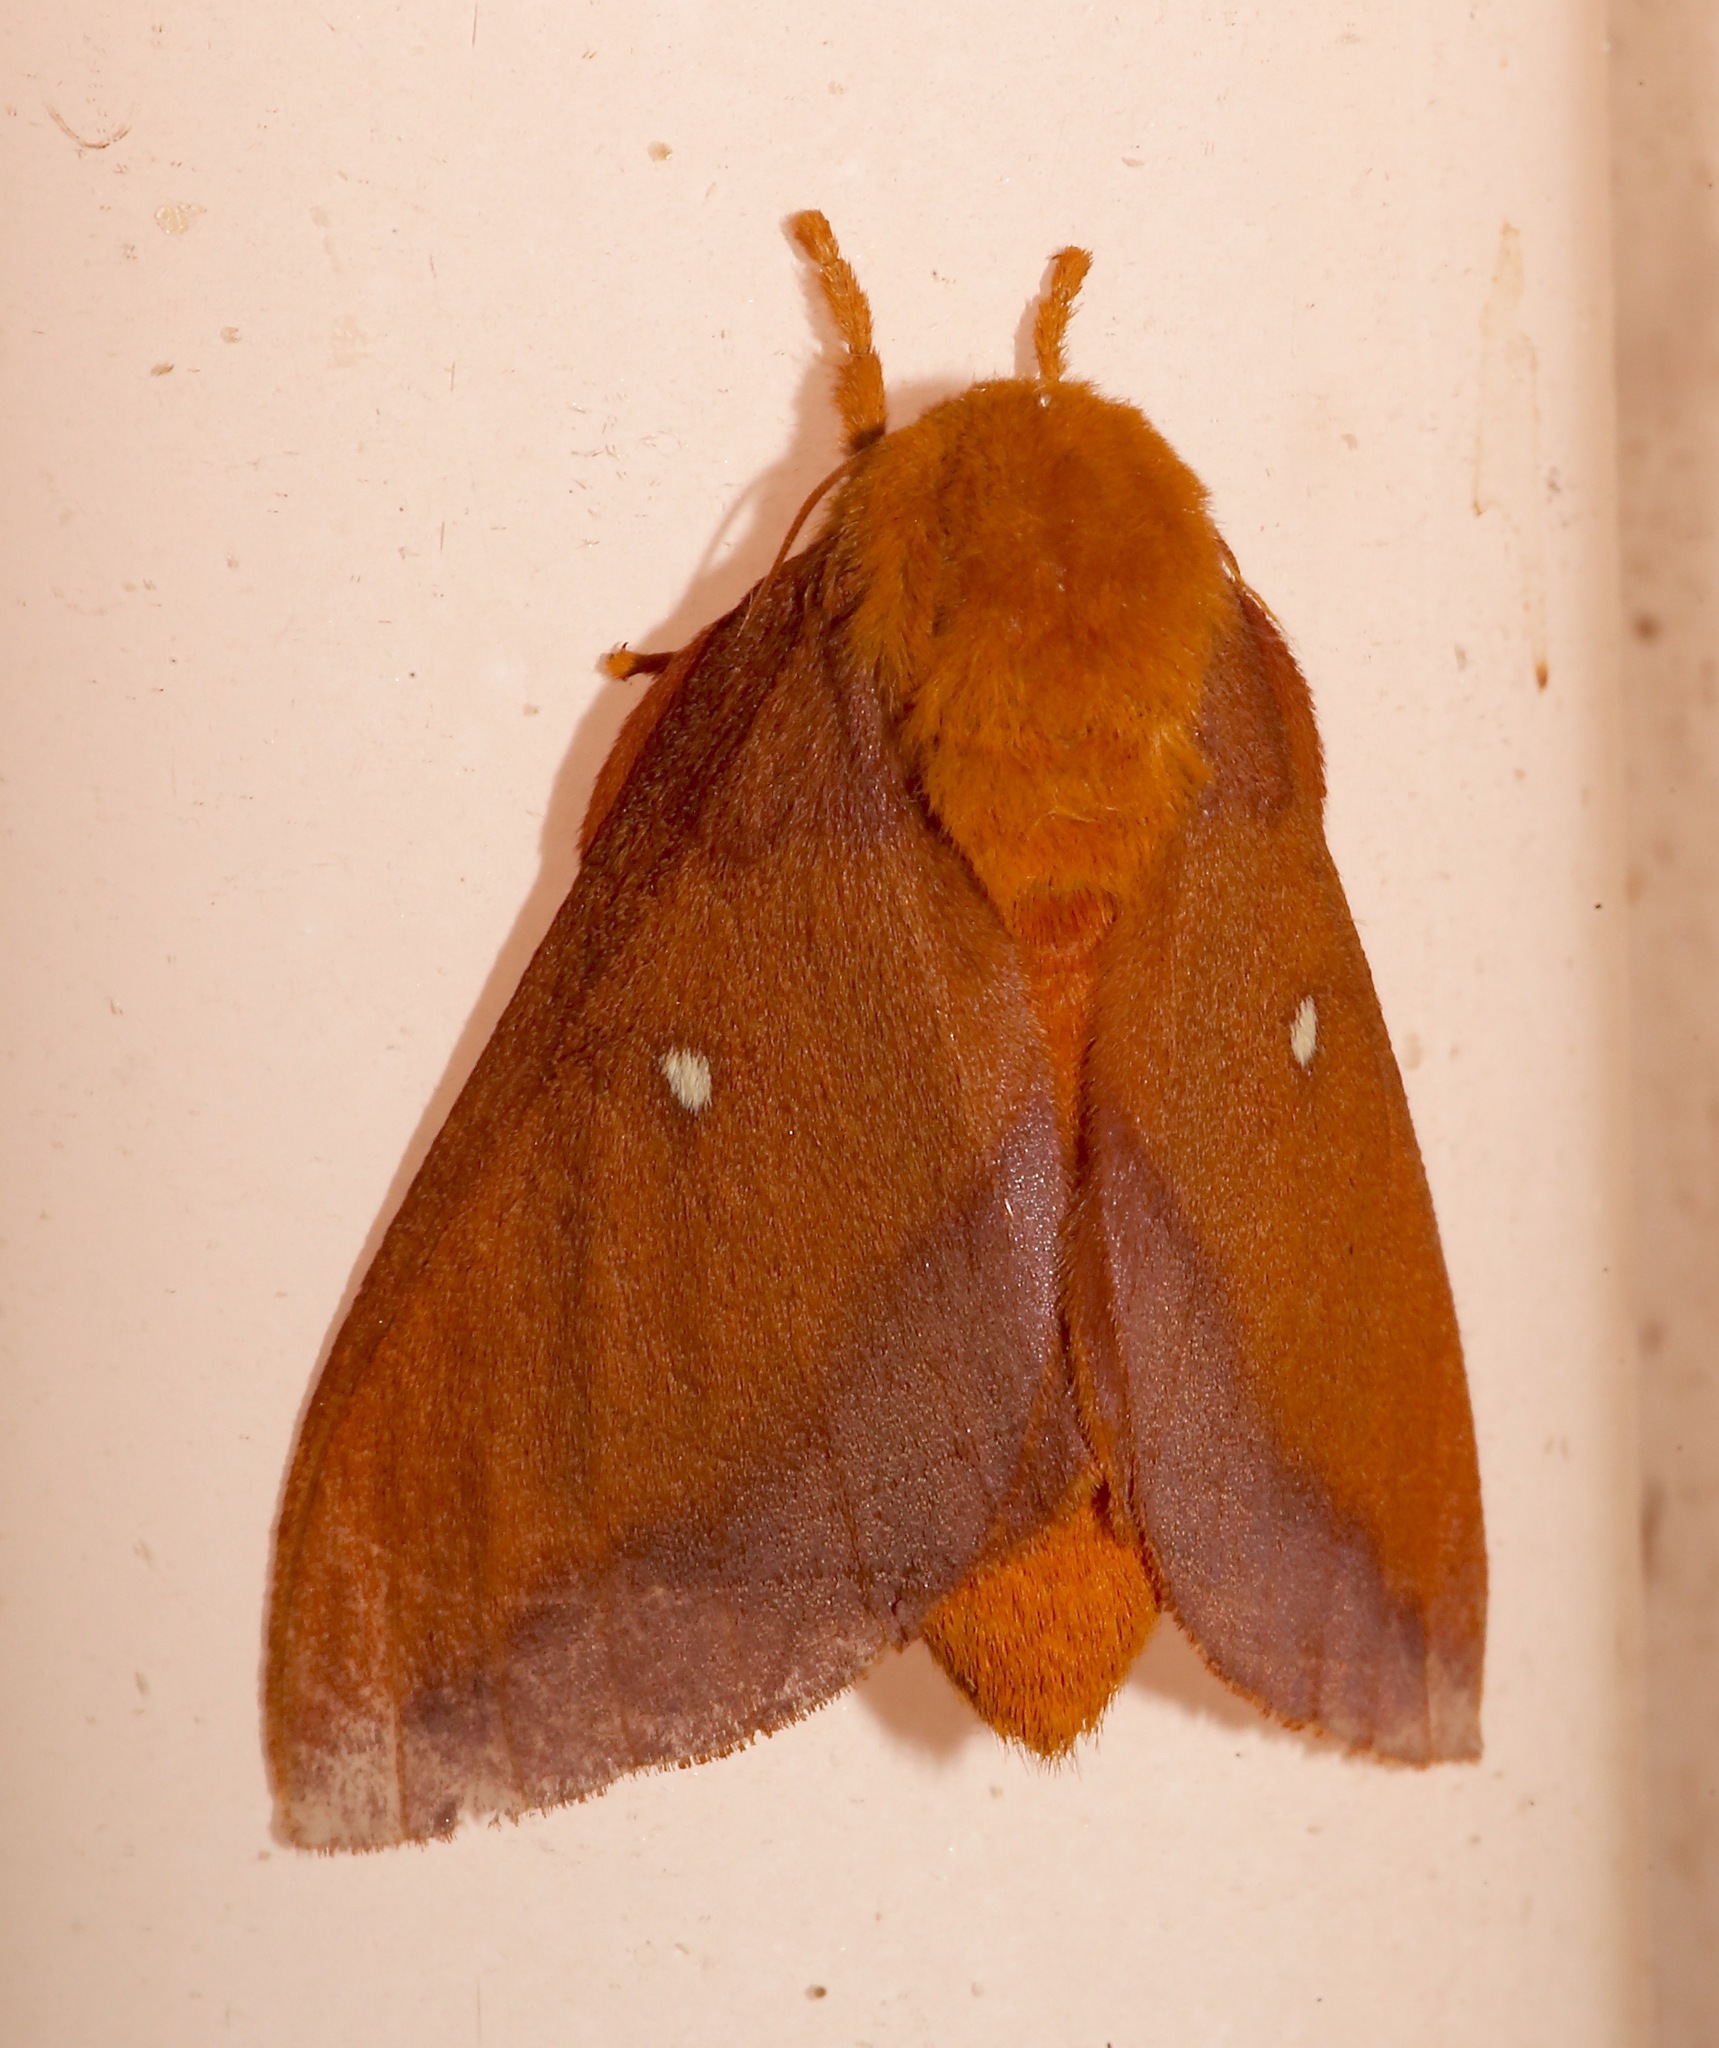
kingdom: Animalia
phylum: Arthropoda
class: Insecta
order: Lepidoptera
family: Saturniidae
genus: Anisota
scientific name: Anisota virginiensis
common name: Pink striped oakworm moth
